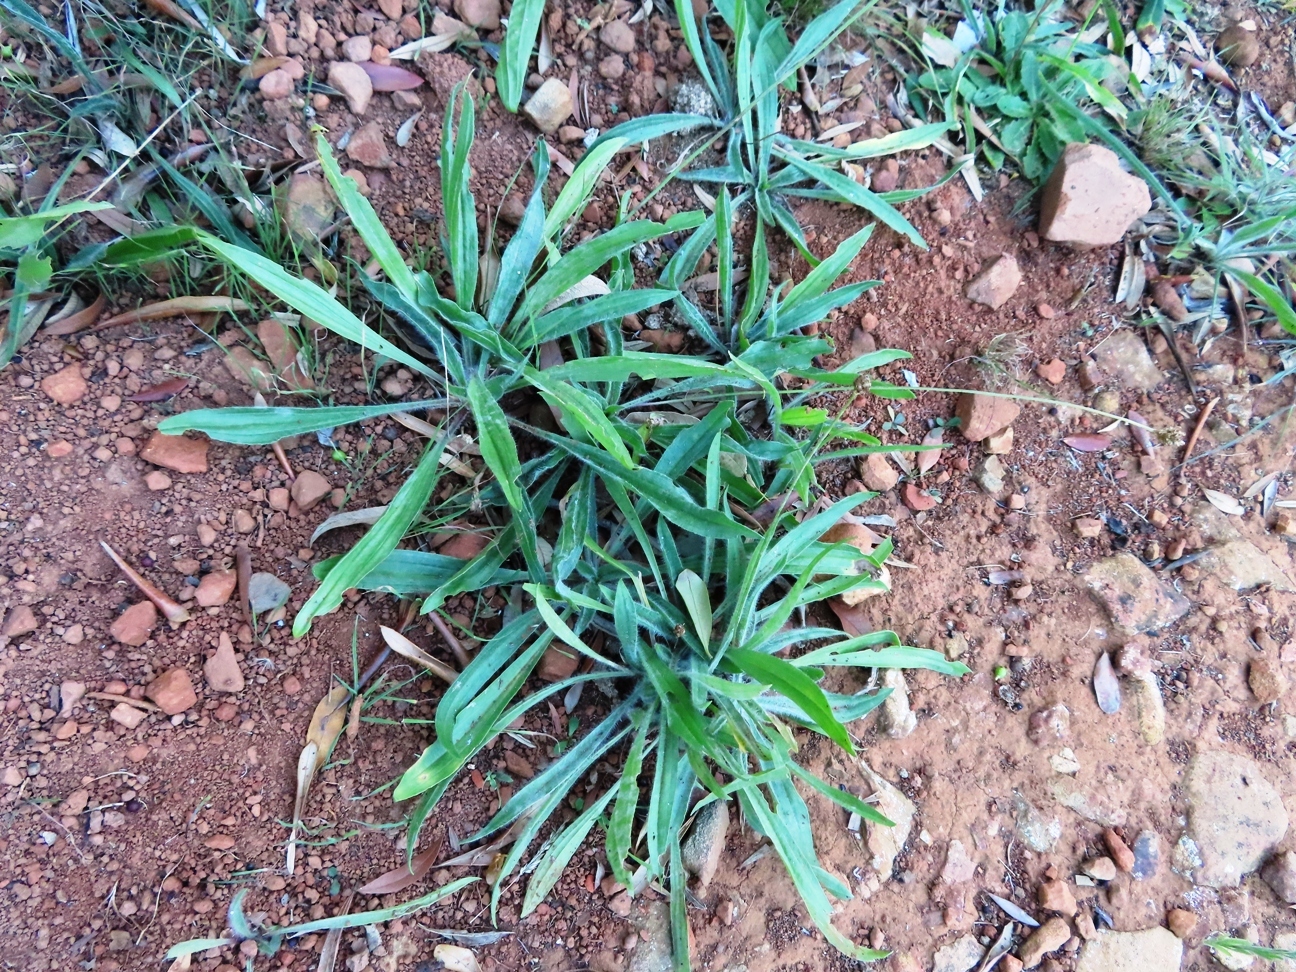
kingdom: Plantae
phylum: Tracheophyta
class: Magnoliopsida
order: Lamiales
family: Plantaginaceae
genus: Plantago
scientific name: Plantago lanceolata
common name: Ribwort plantain
